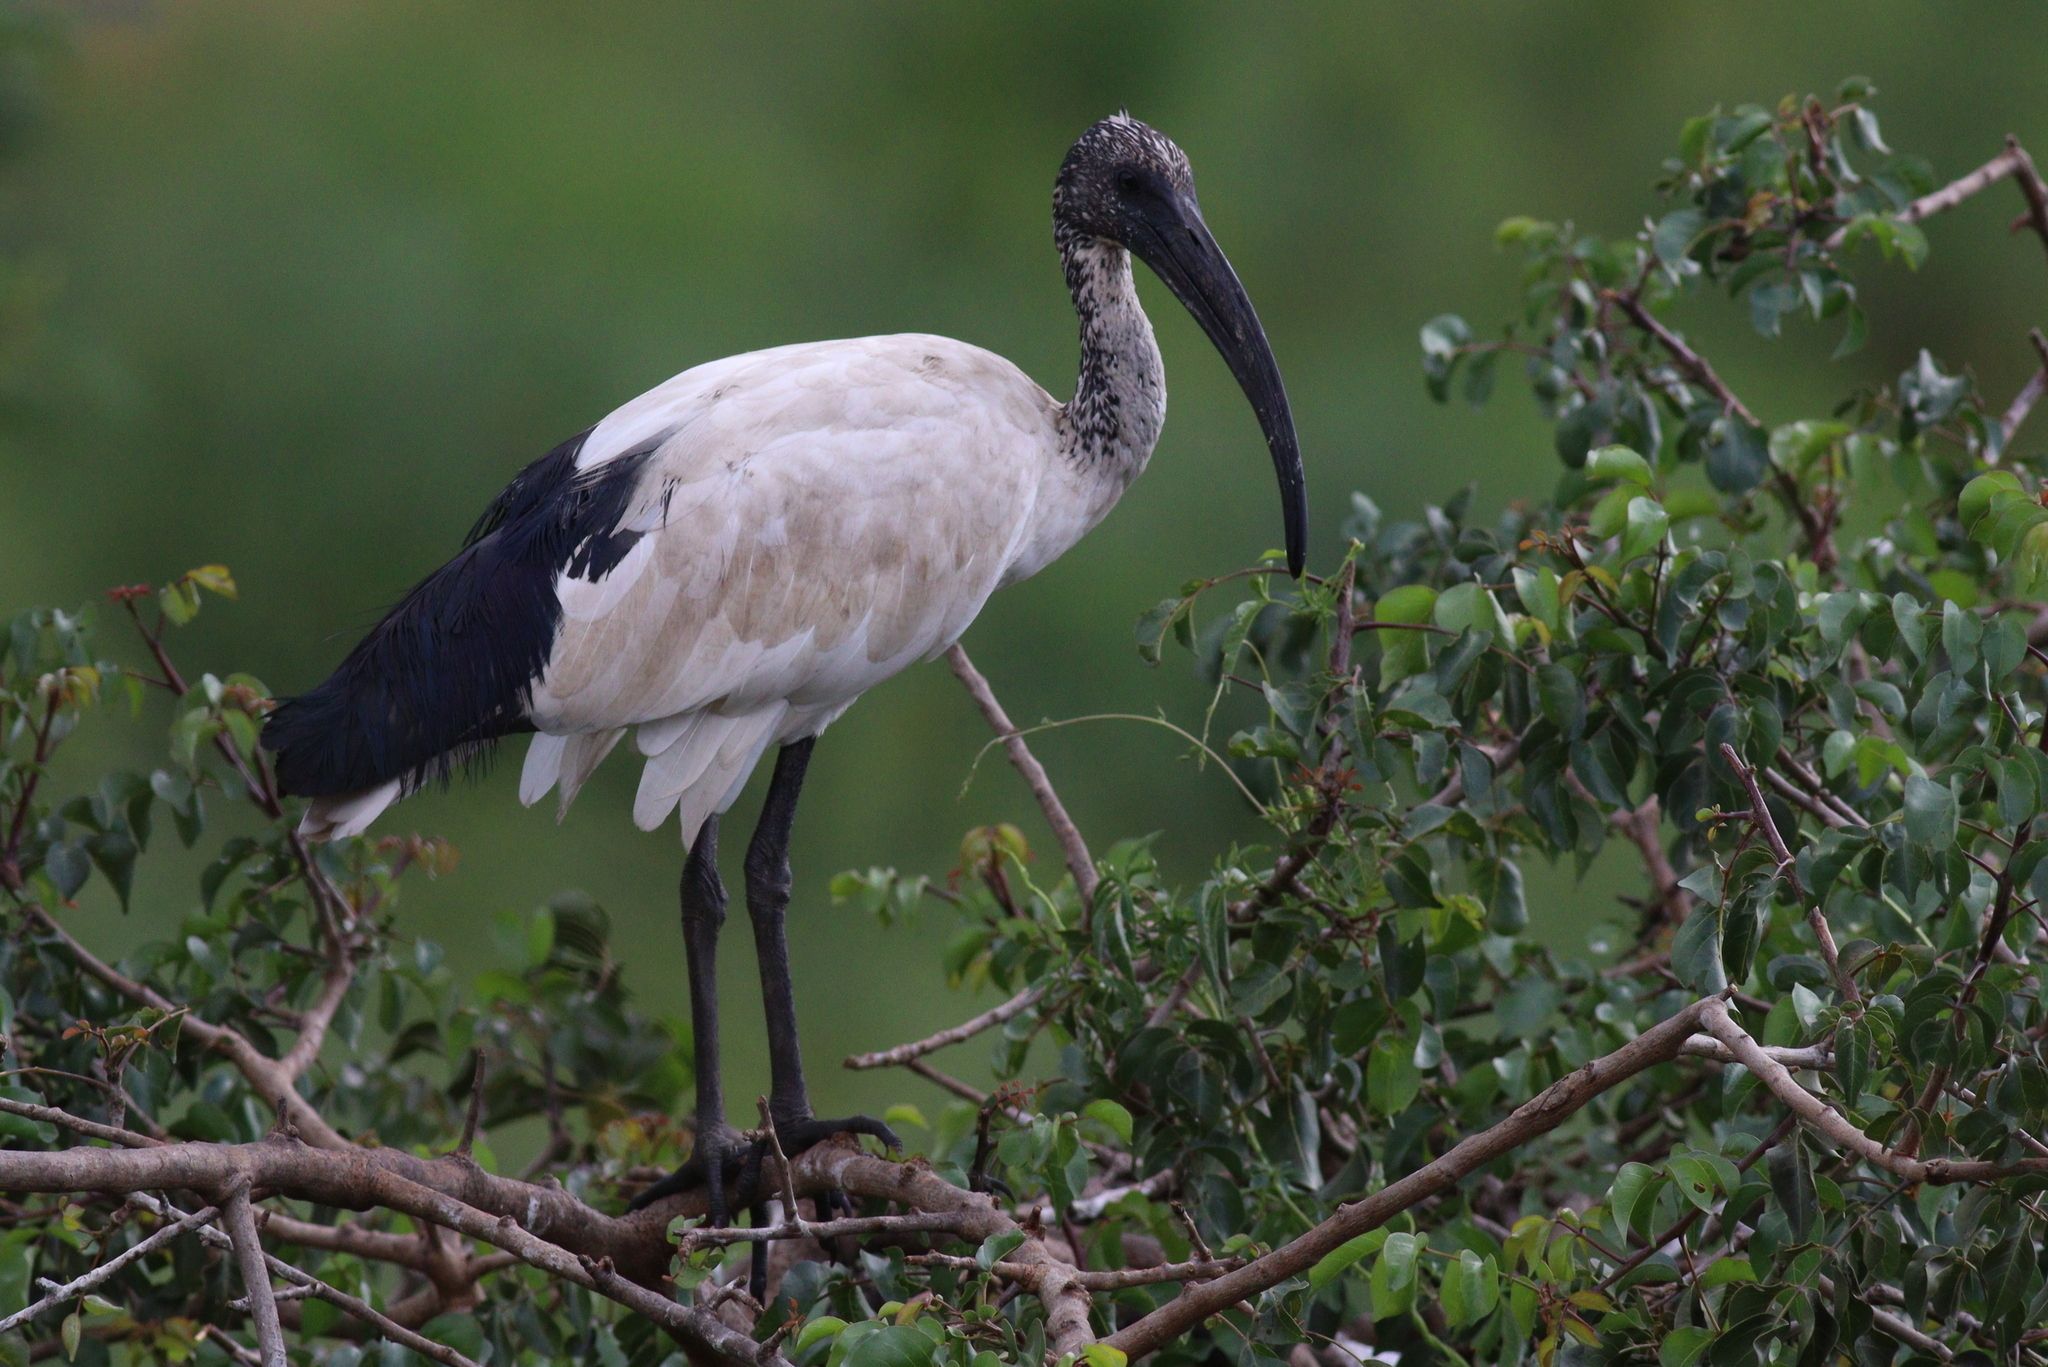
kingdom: Animalia
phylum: Chordata
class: Aves
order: Pelecaniformes
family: Threskiornithidae
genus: Threskiornis
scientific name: Threskiornis aethiopicus
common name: Sacred ibis
